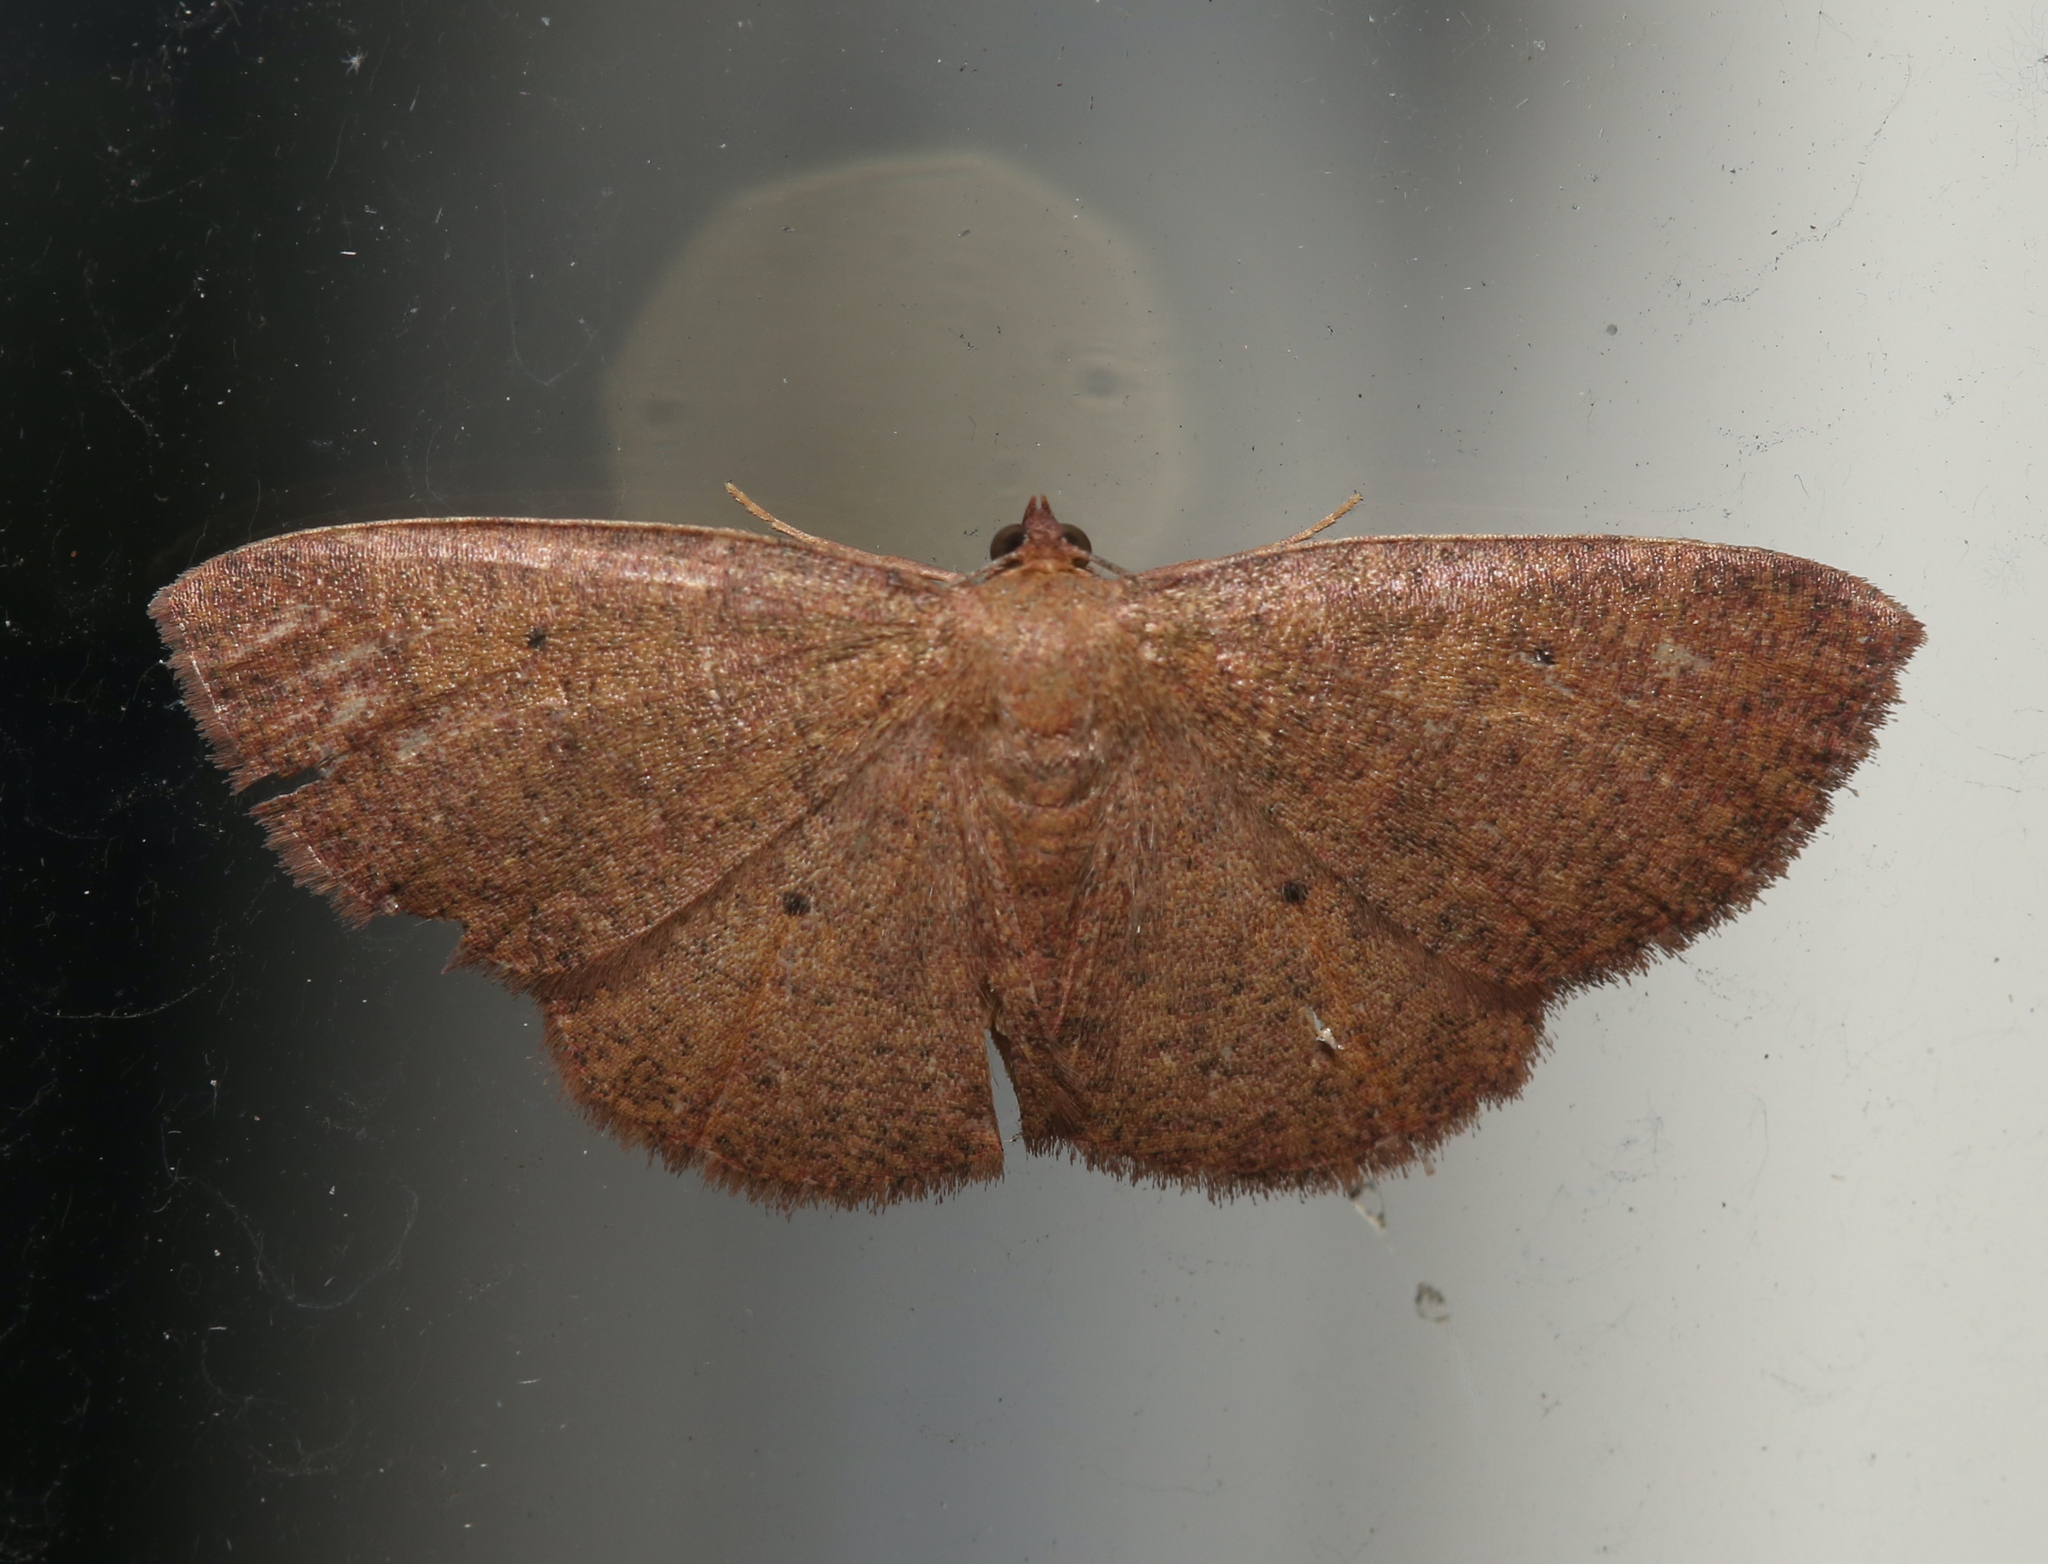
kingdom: Animalia
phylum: Arthropoda
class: Insecta
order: Lepidoptera
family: Geometridae
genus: Ilexia
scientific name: Ilexia intractata
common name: Black-dotted ruddy moth
